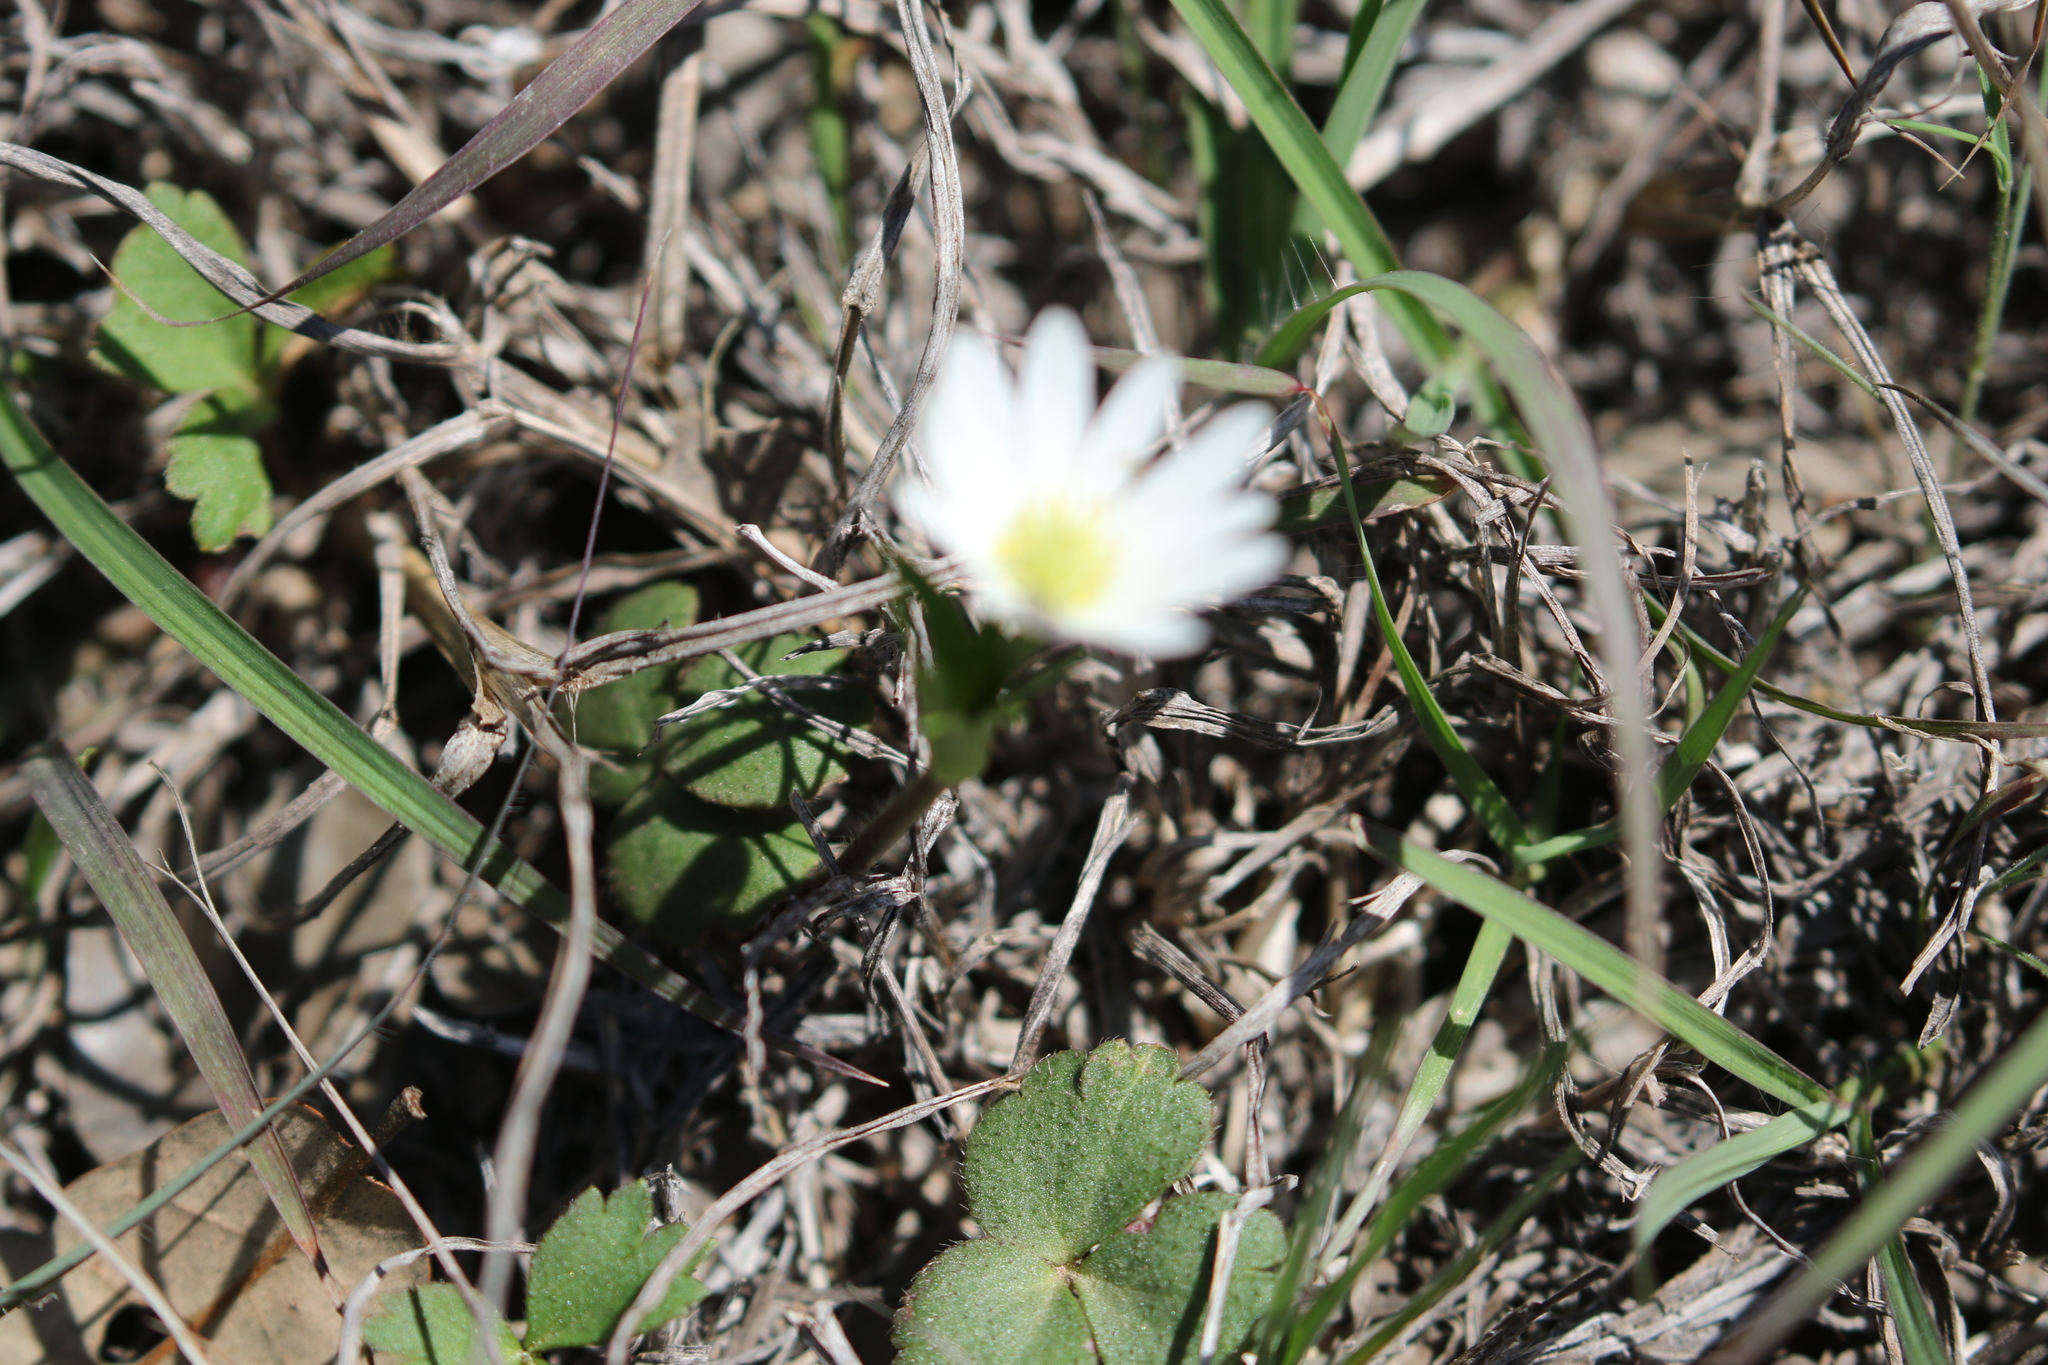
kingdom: Plantae
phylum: Tracheophyta
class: Magnoliopsida
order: Ranunculales
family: Ranunculaceae
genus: Anemone
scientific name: Anemone berlandieri
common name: Ten-petal anemone
